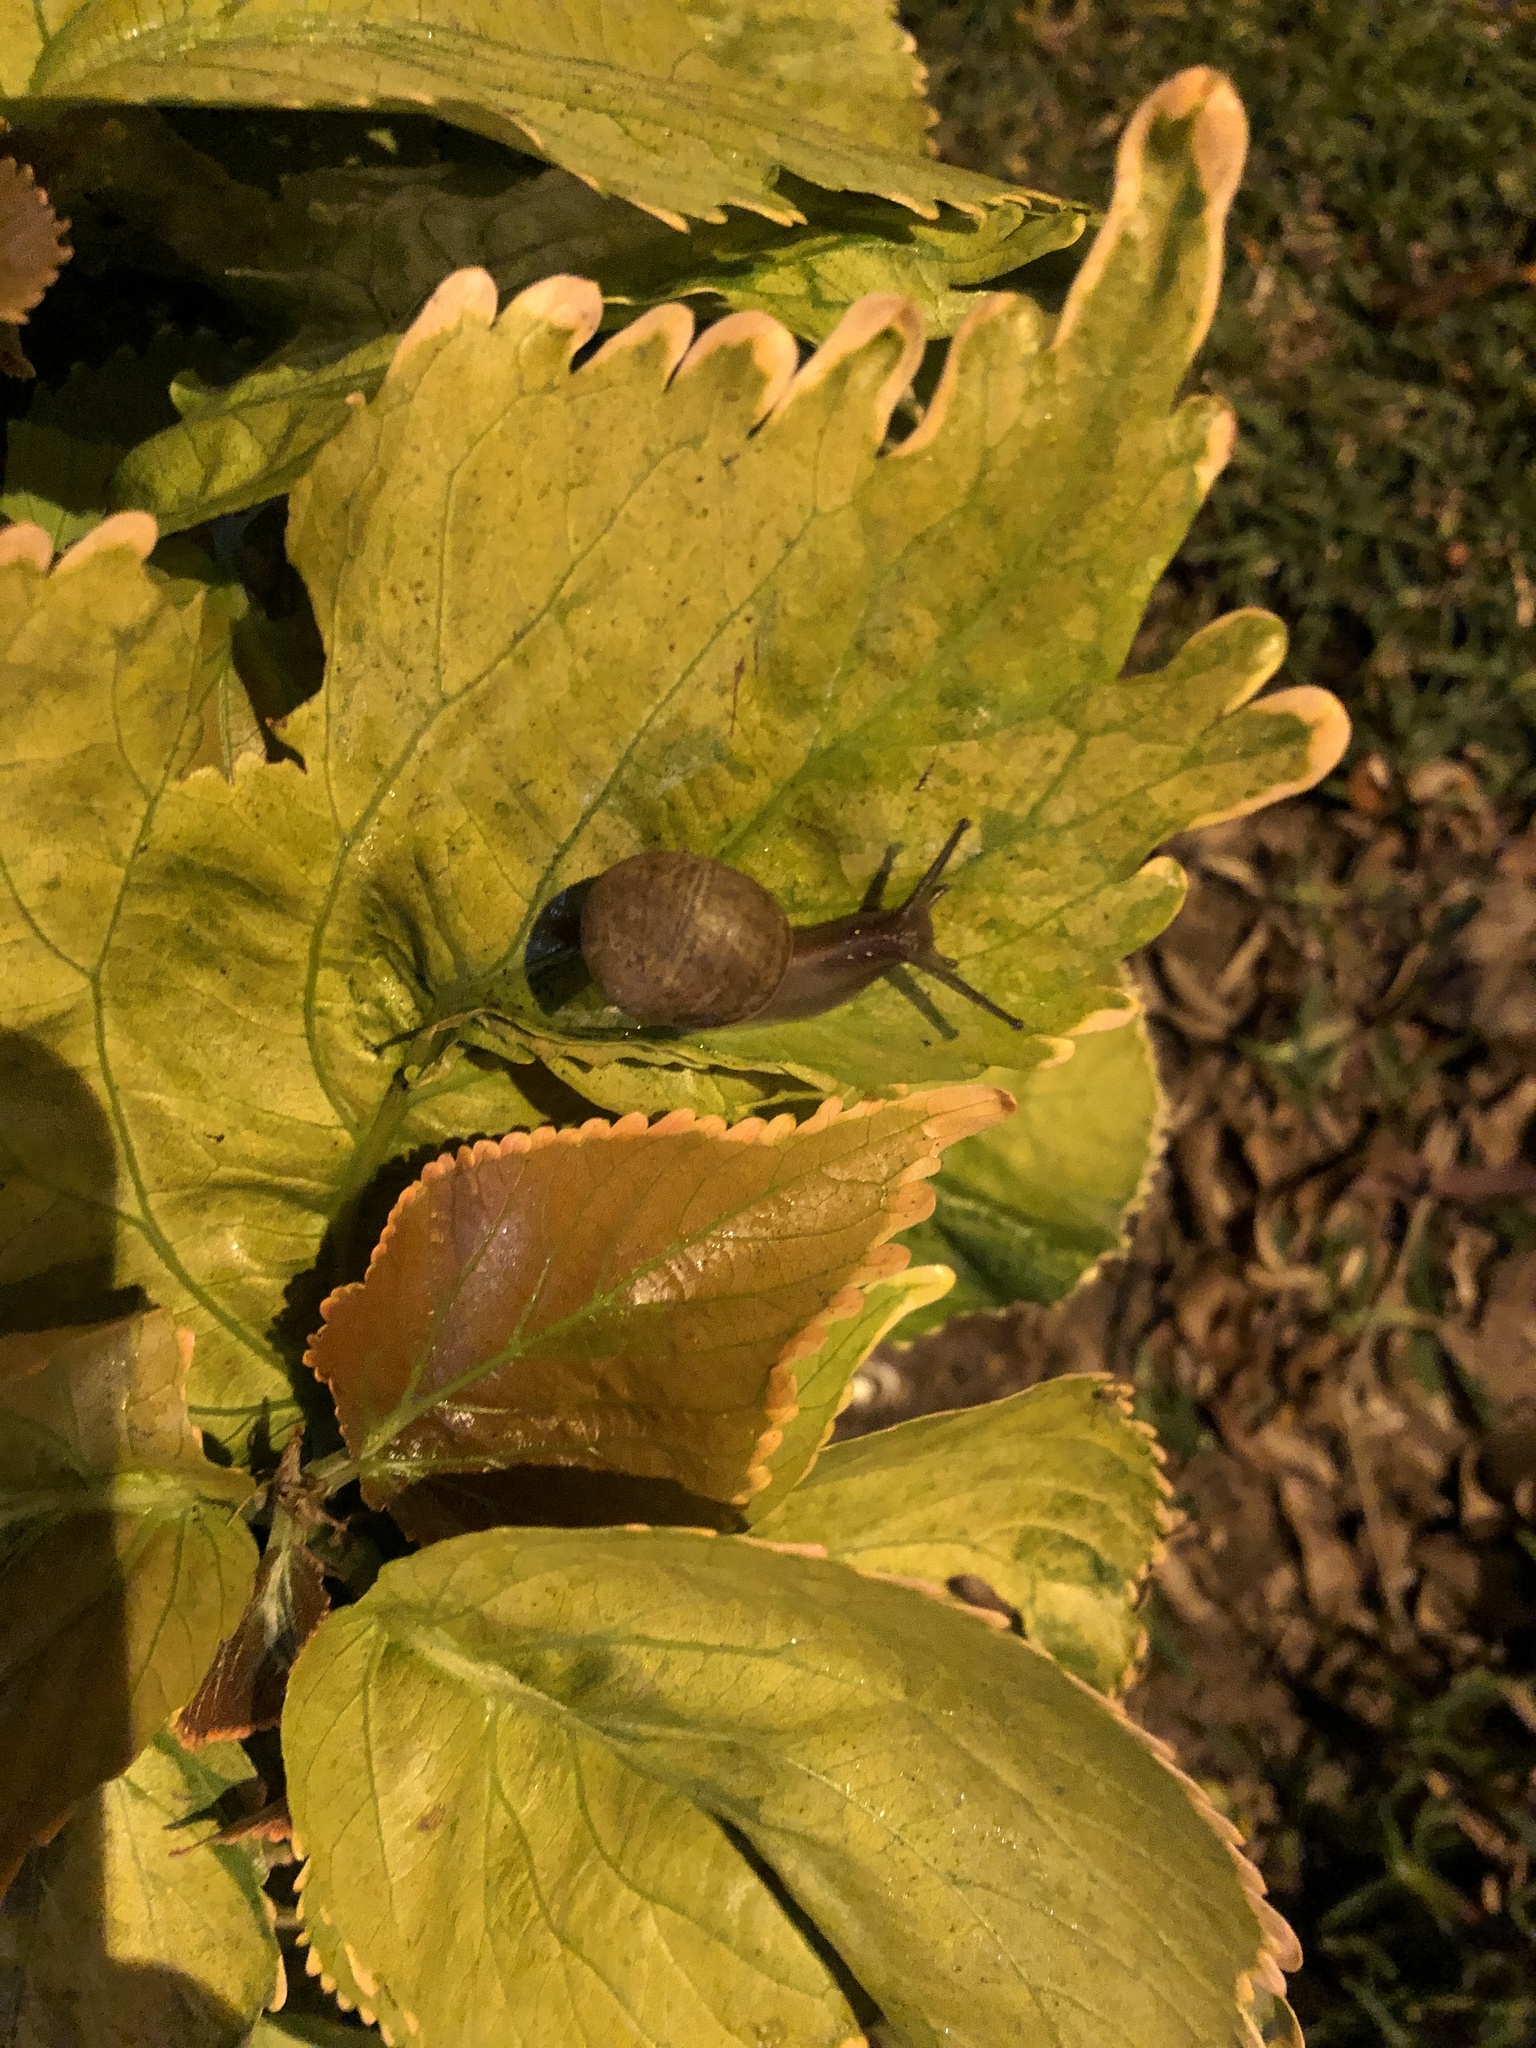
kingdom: Animalia
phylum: Mollusca
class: Gastropoda
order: Stylommatophora
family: Helicidae
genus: Cornu
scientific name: Cornu aspersum
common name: Brown garden snail
